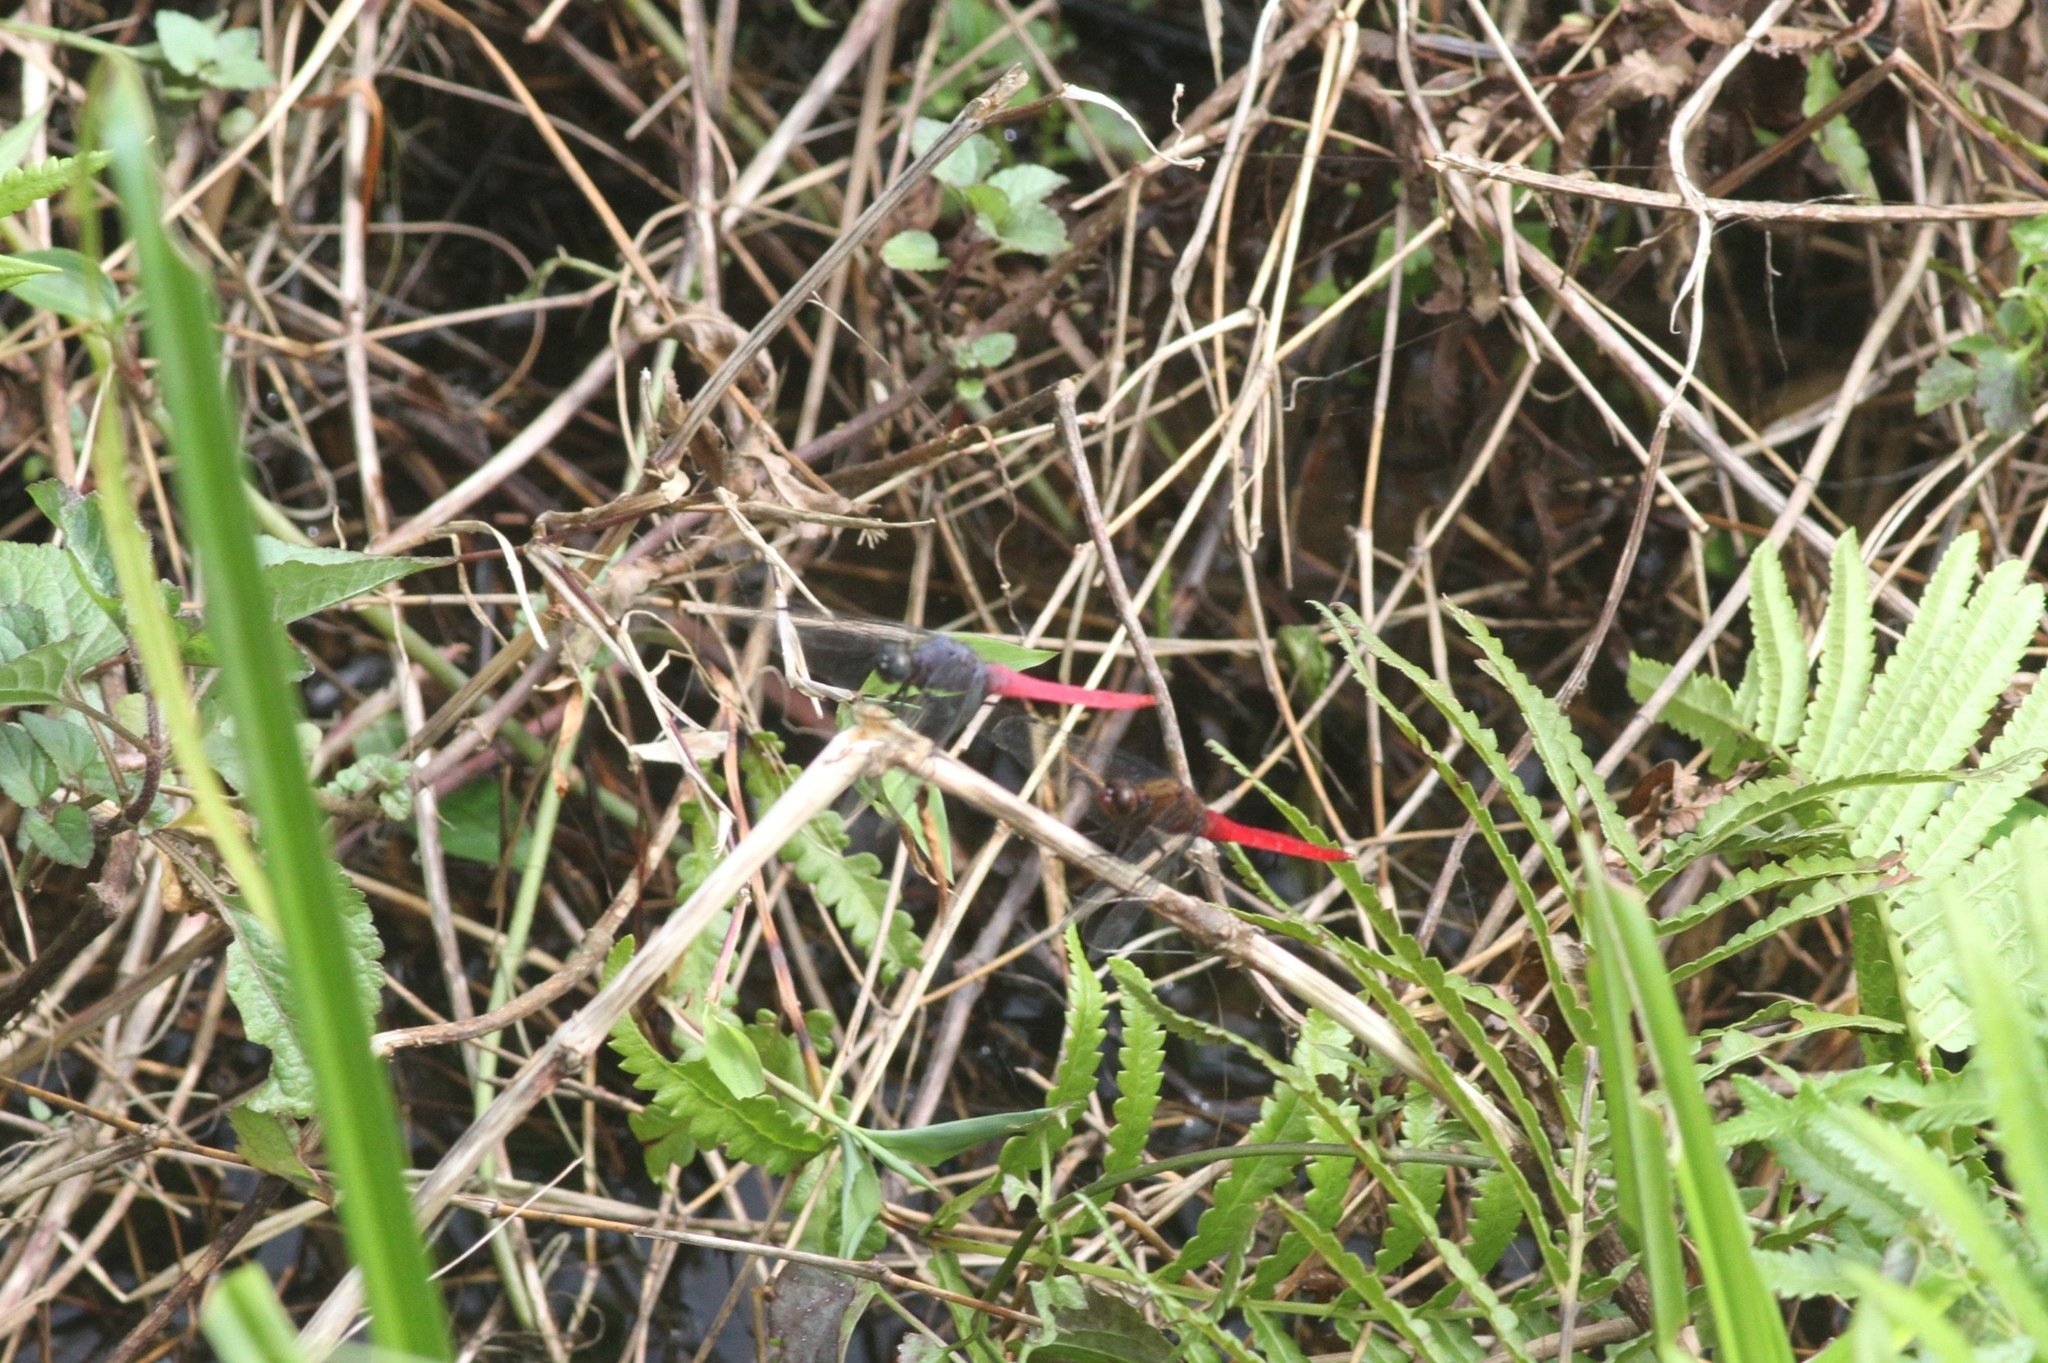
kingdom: Animalia
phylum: Arthropoda
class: Insecta
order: Odonata
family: Libellulidae
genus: Orthetrum
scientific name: Orthetrum pruinosum
